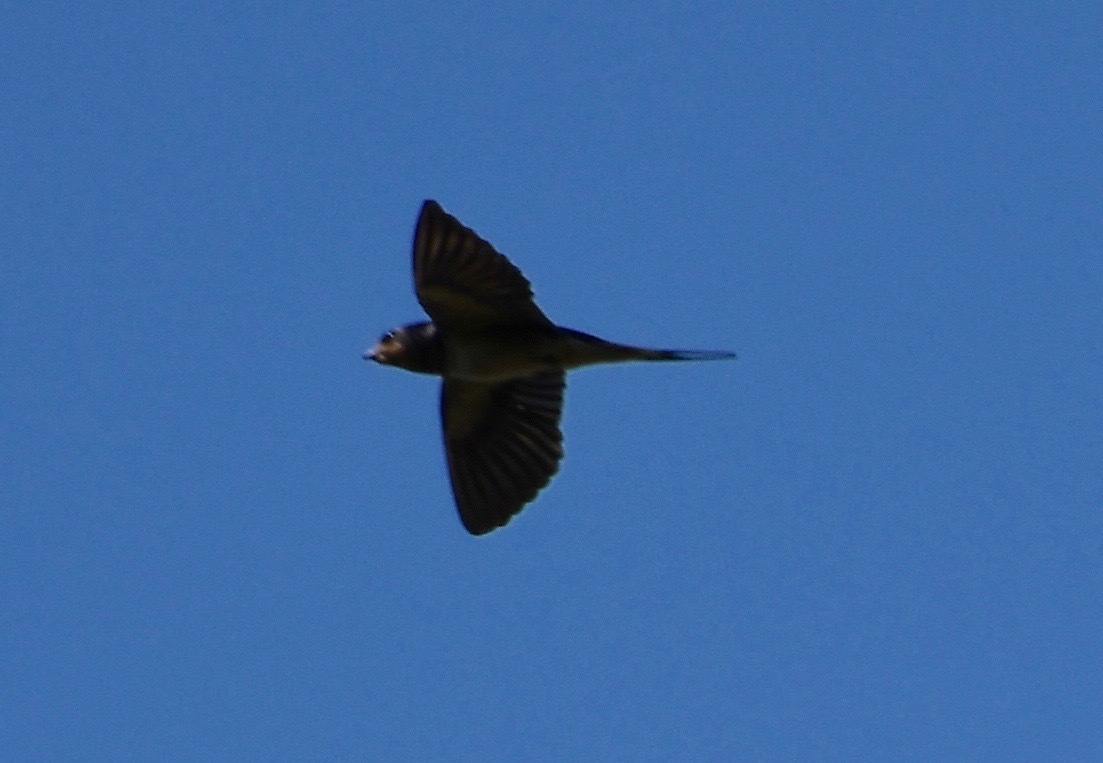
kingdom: Animalia
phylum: Chordata
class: Aves
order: Passeriformes
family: Hirundinidae
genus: Hirundo
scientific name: Hirundo rustica
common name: Barn swallow
